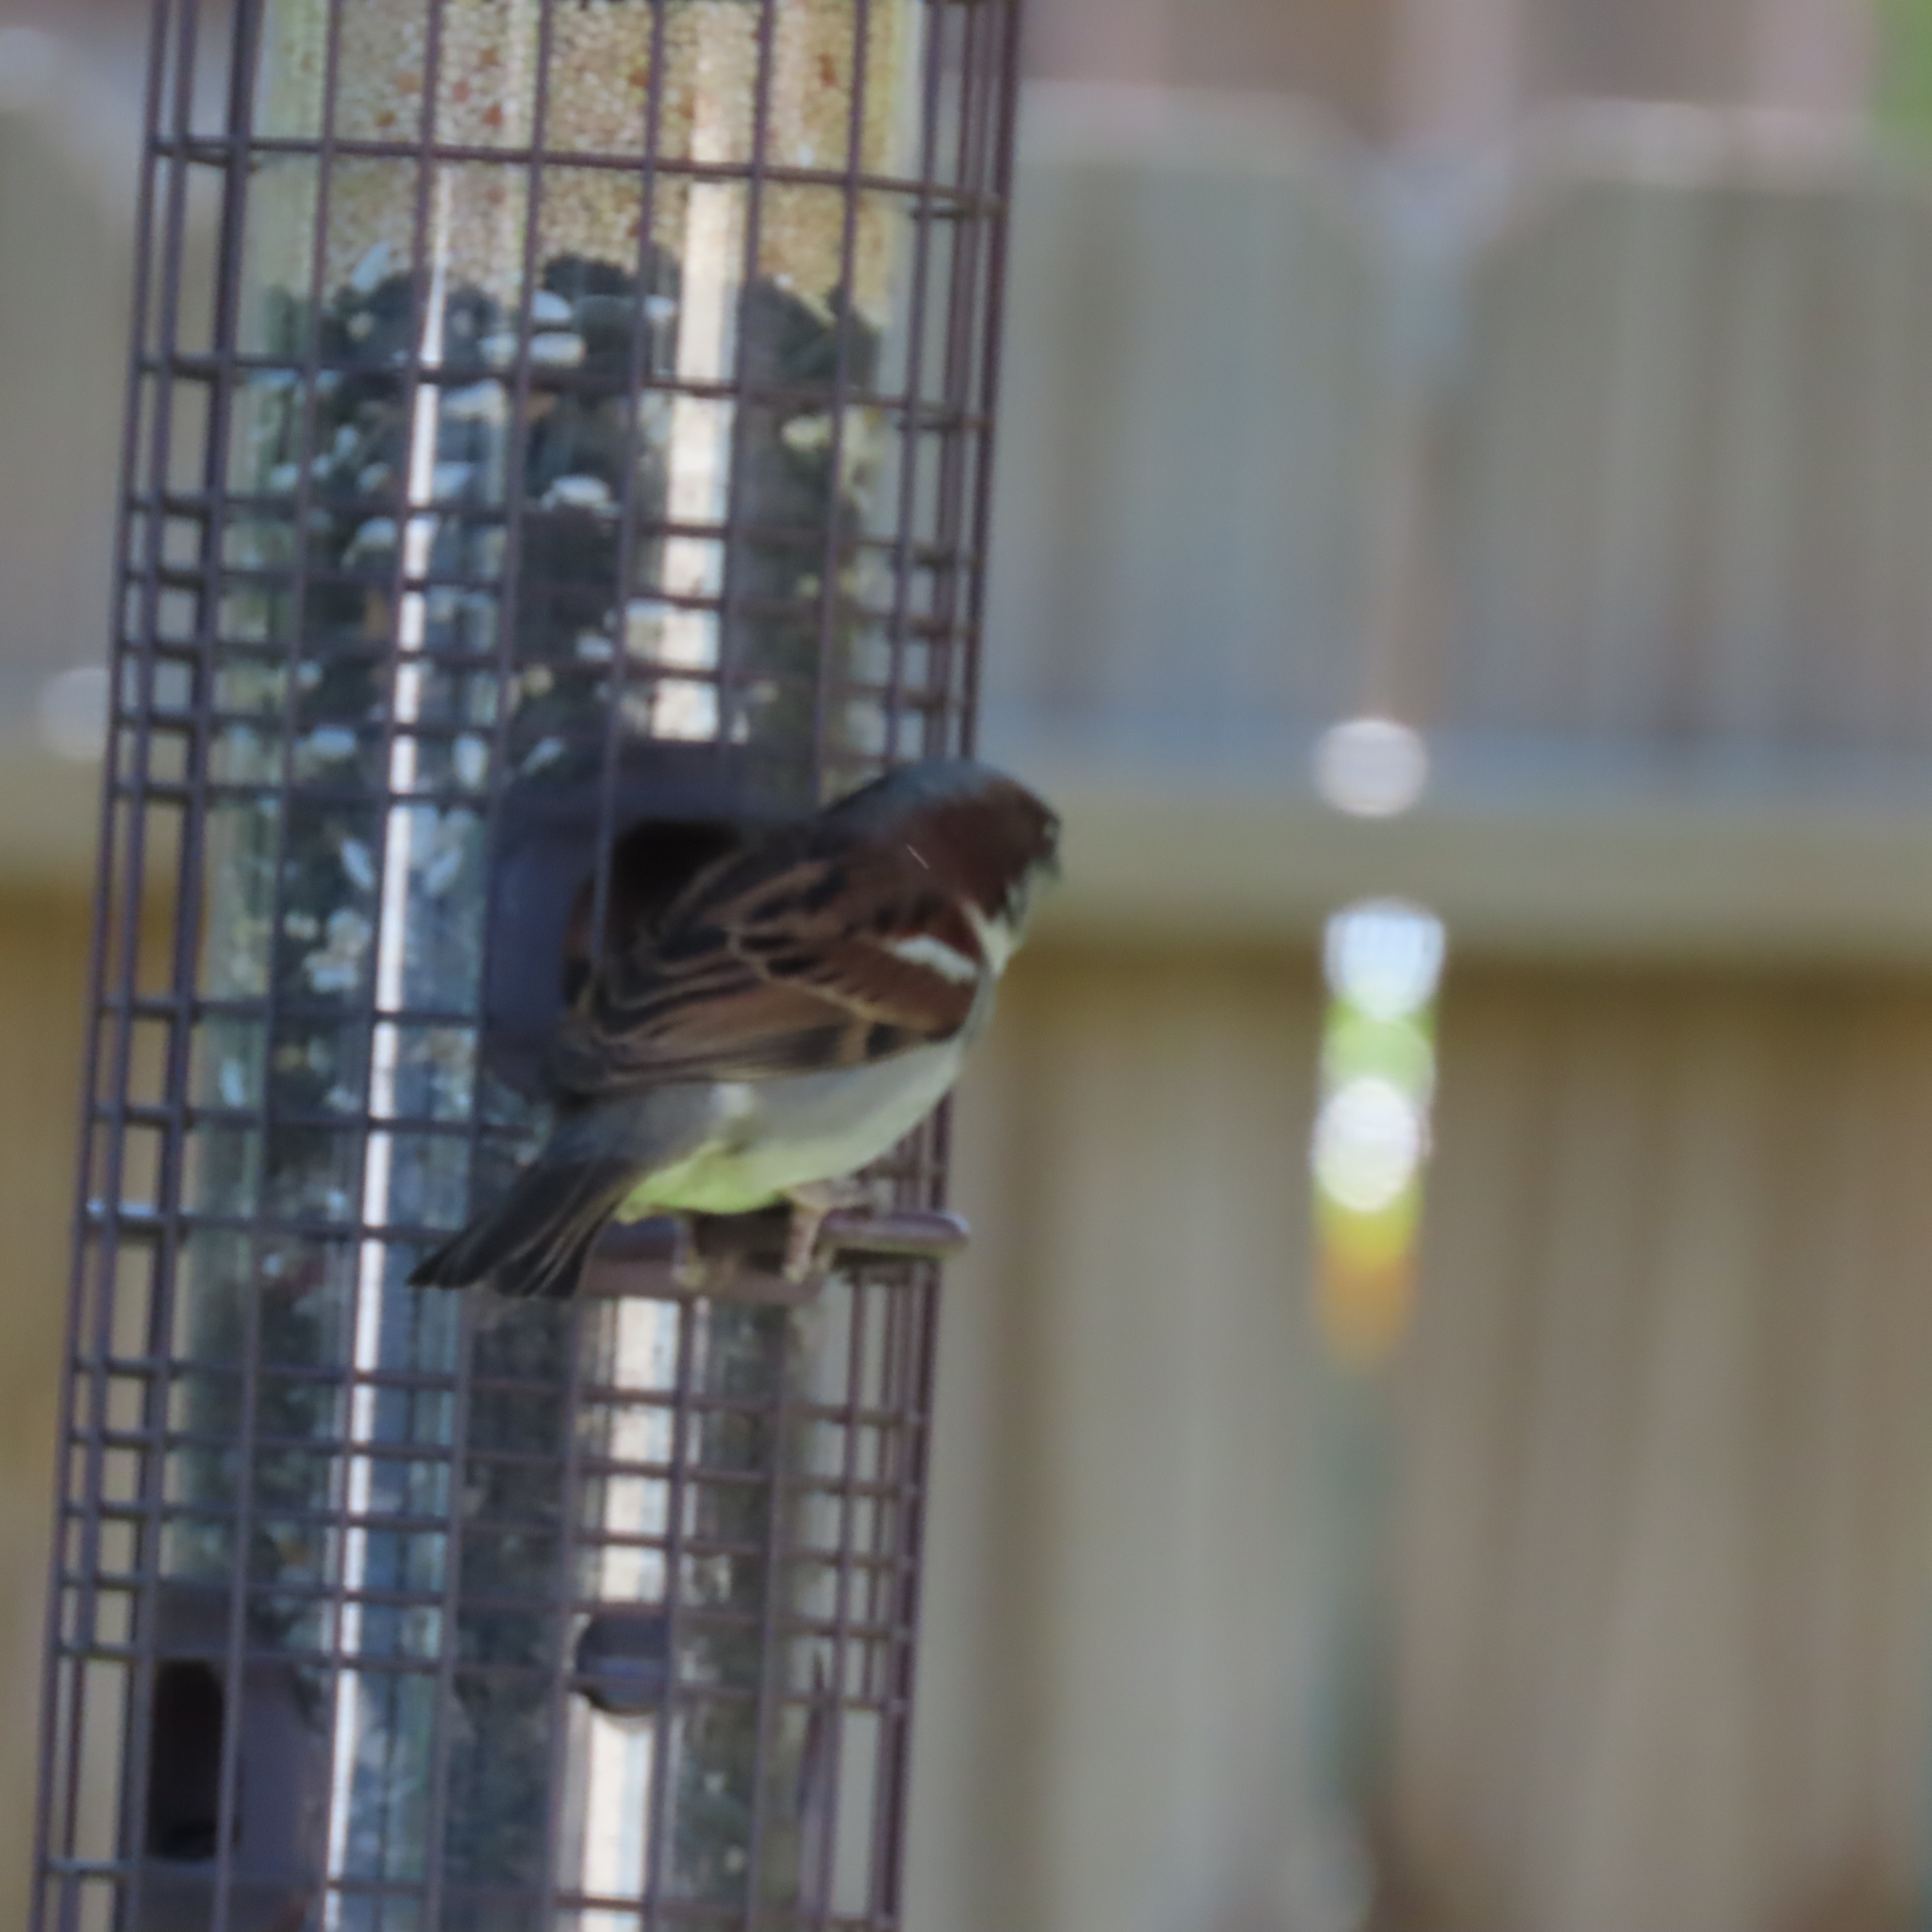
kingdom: Animalia
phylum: Chordata
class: Aves
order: Passeriformes
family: Passeridae
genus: Passer
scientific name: Passer domesticus
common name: House sparrow
